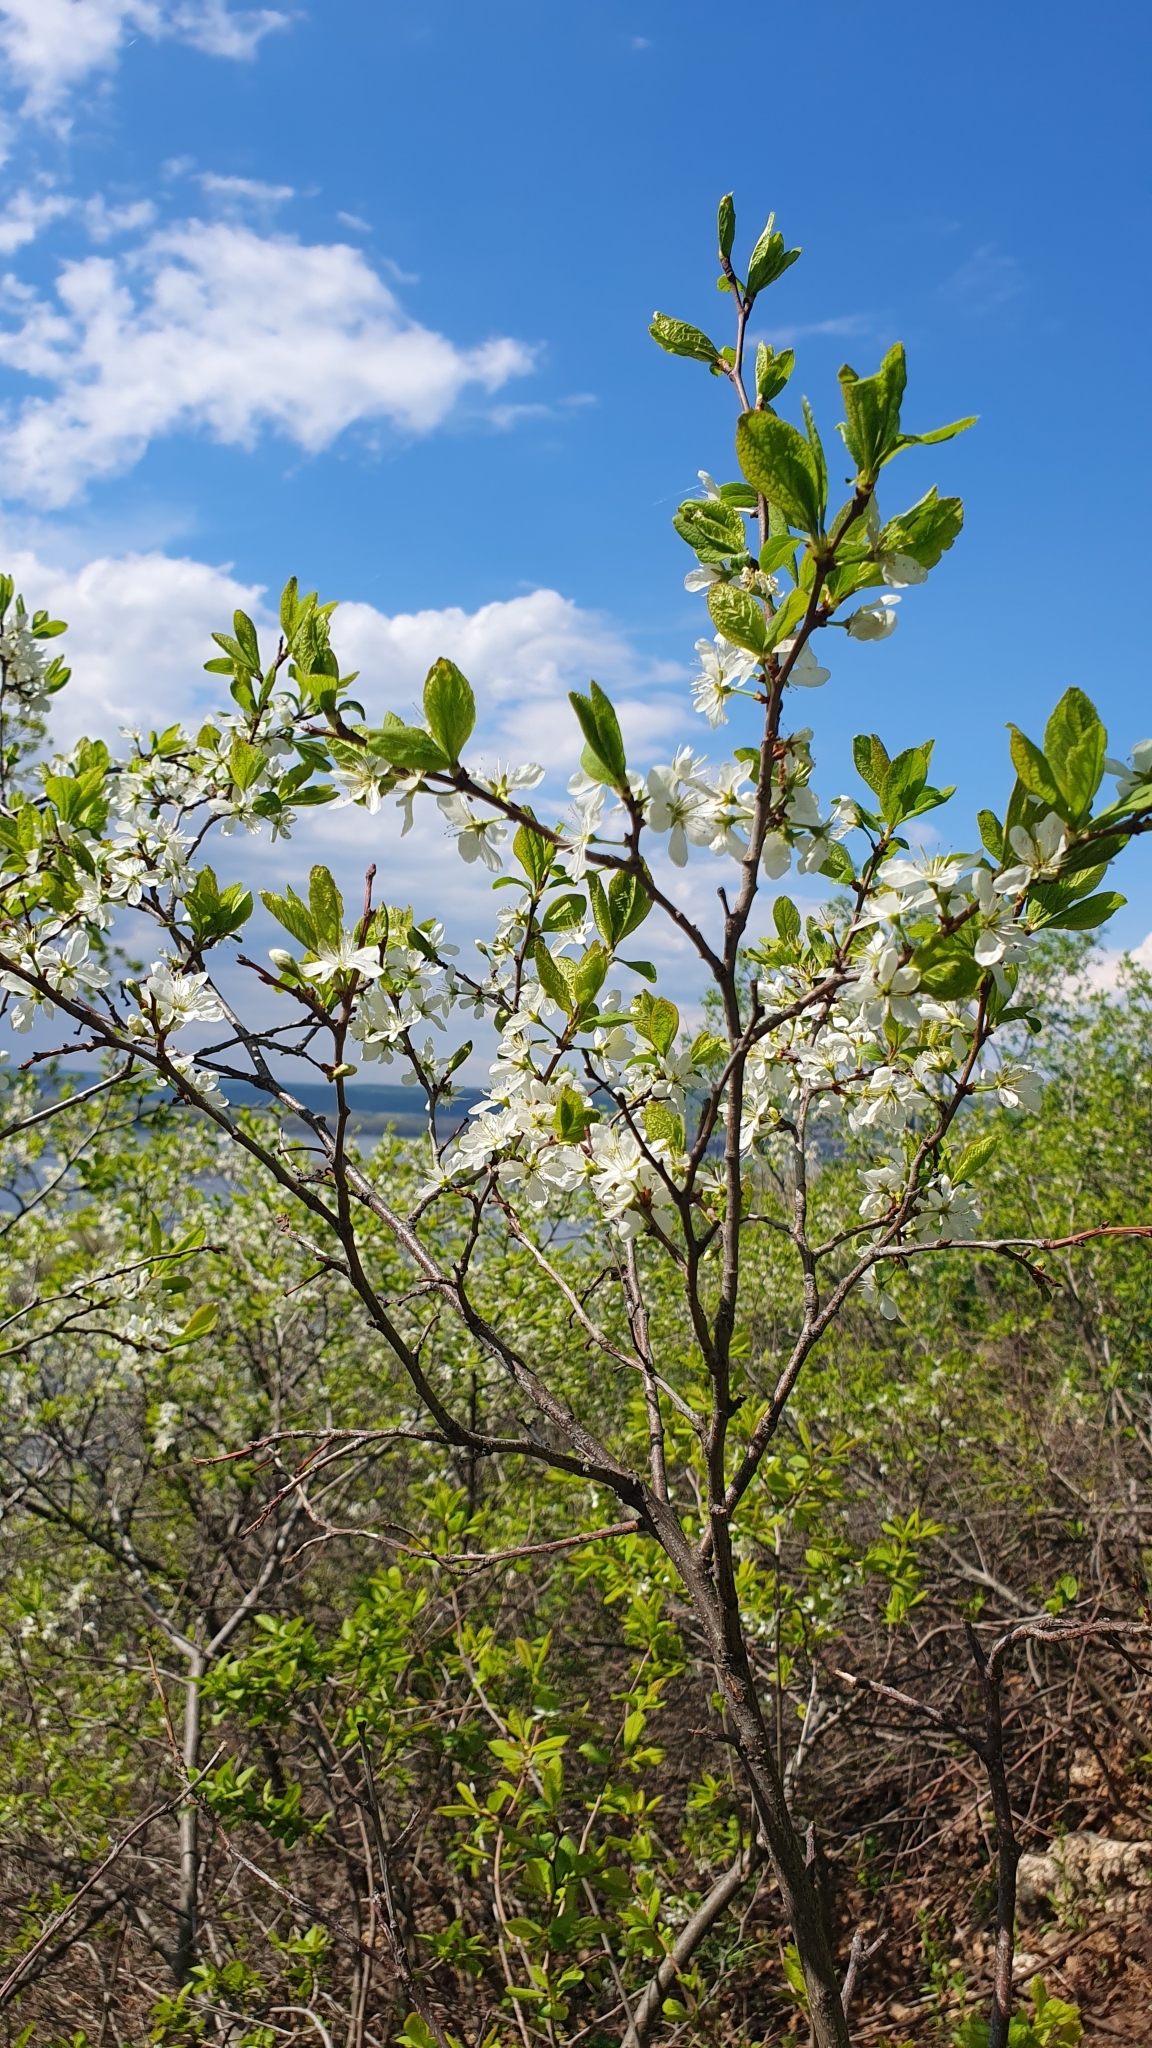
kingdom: Plantae
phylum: Tracheophyta
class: Magnoliopsida
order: Rosales
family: Rosaceae
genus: Prunus
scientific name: Prunus spinosa
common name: Blackthorn
